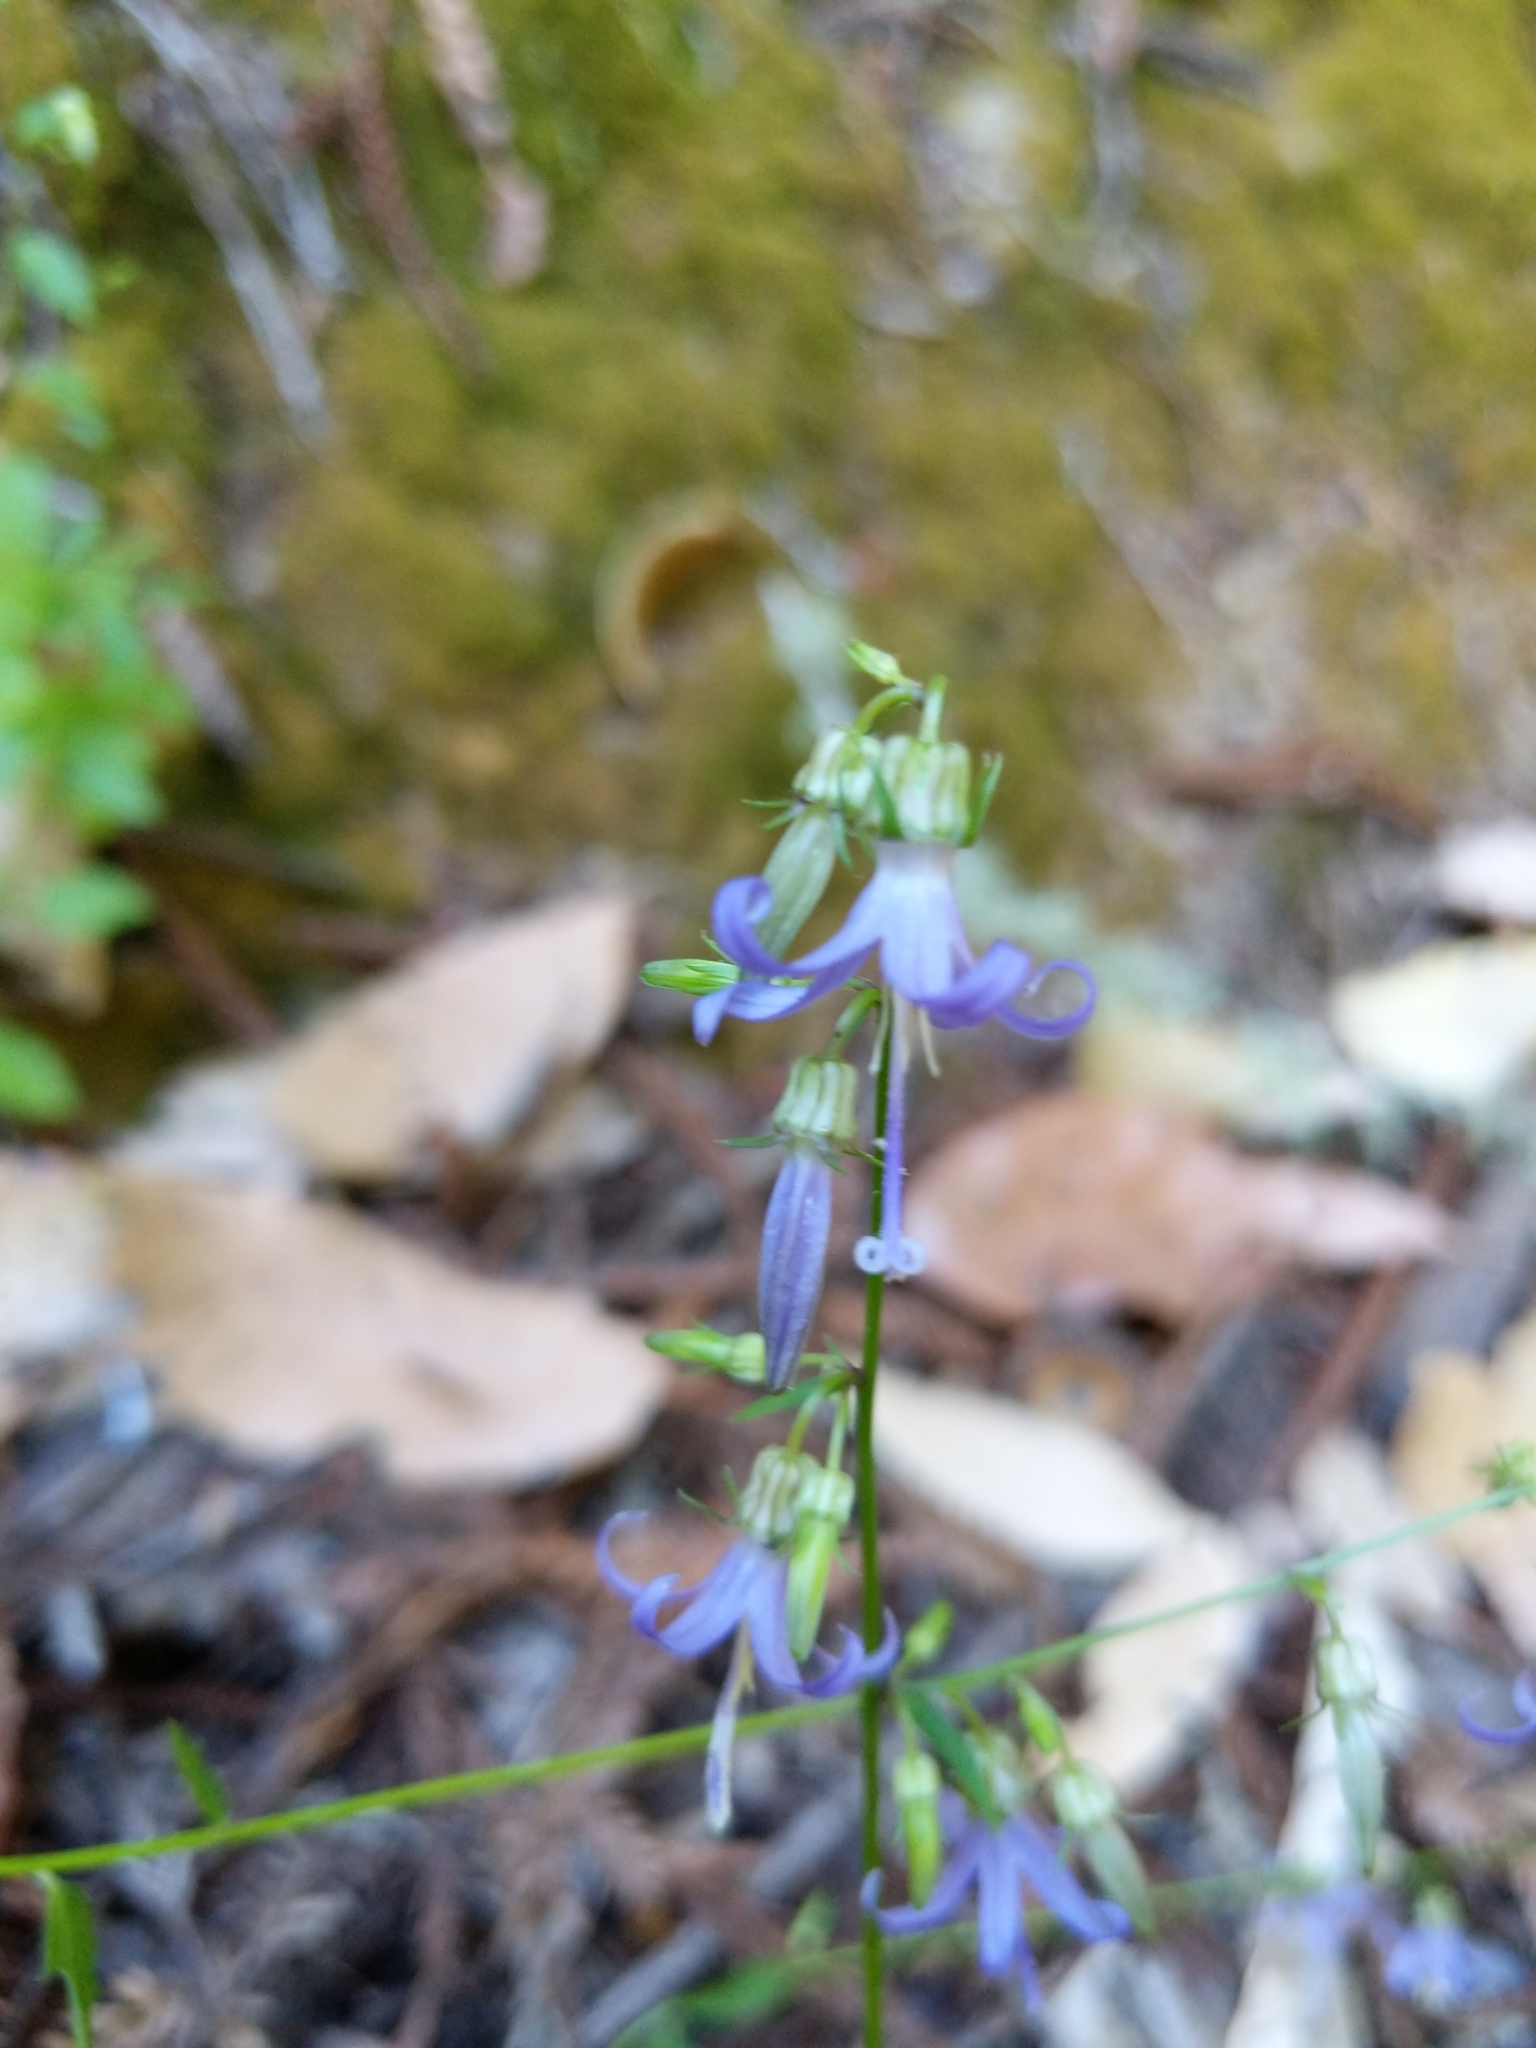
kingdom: Plantae
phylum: Tracheophyta
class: Magnoliopsida
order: Asterales
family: Campanulaceae
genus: Smithiastrum
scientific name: Smithiastrum prenanthoides
